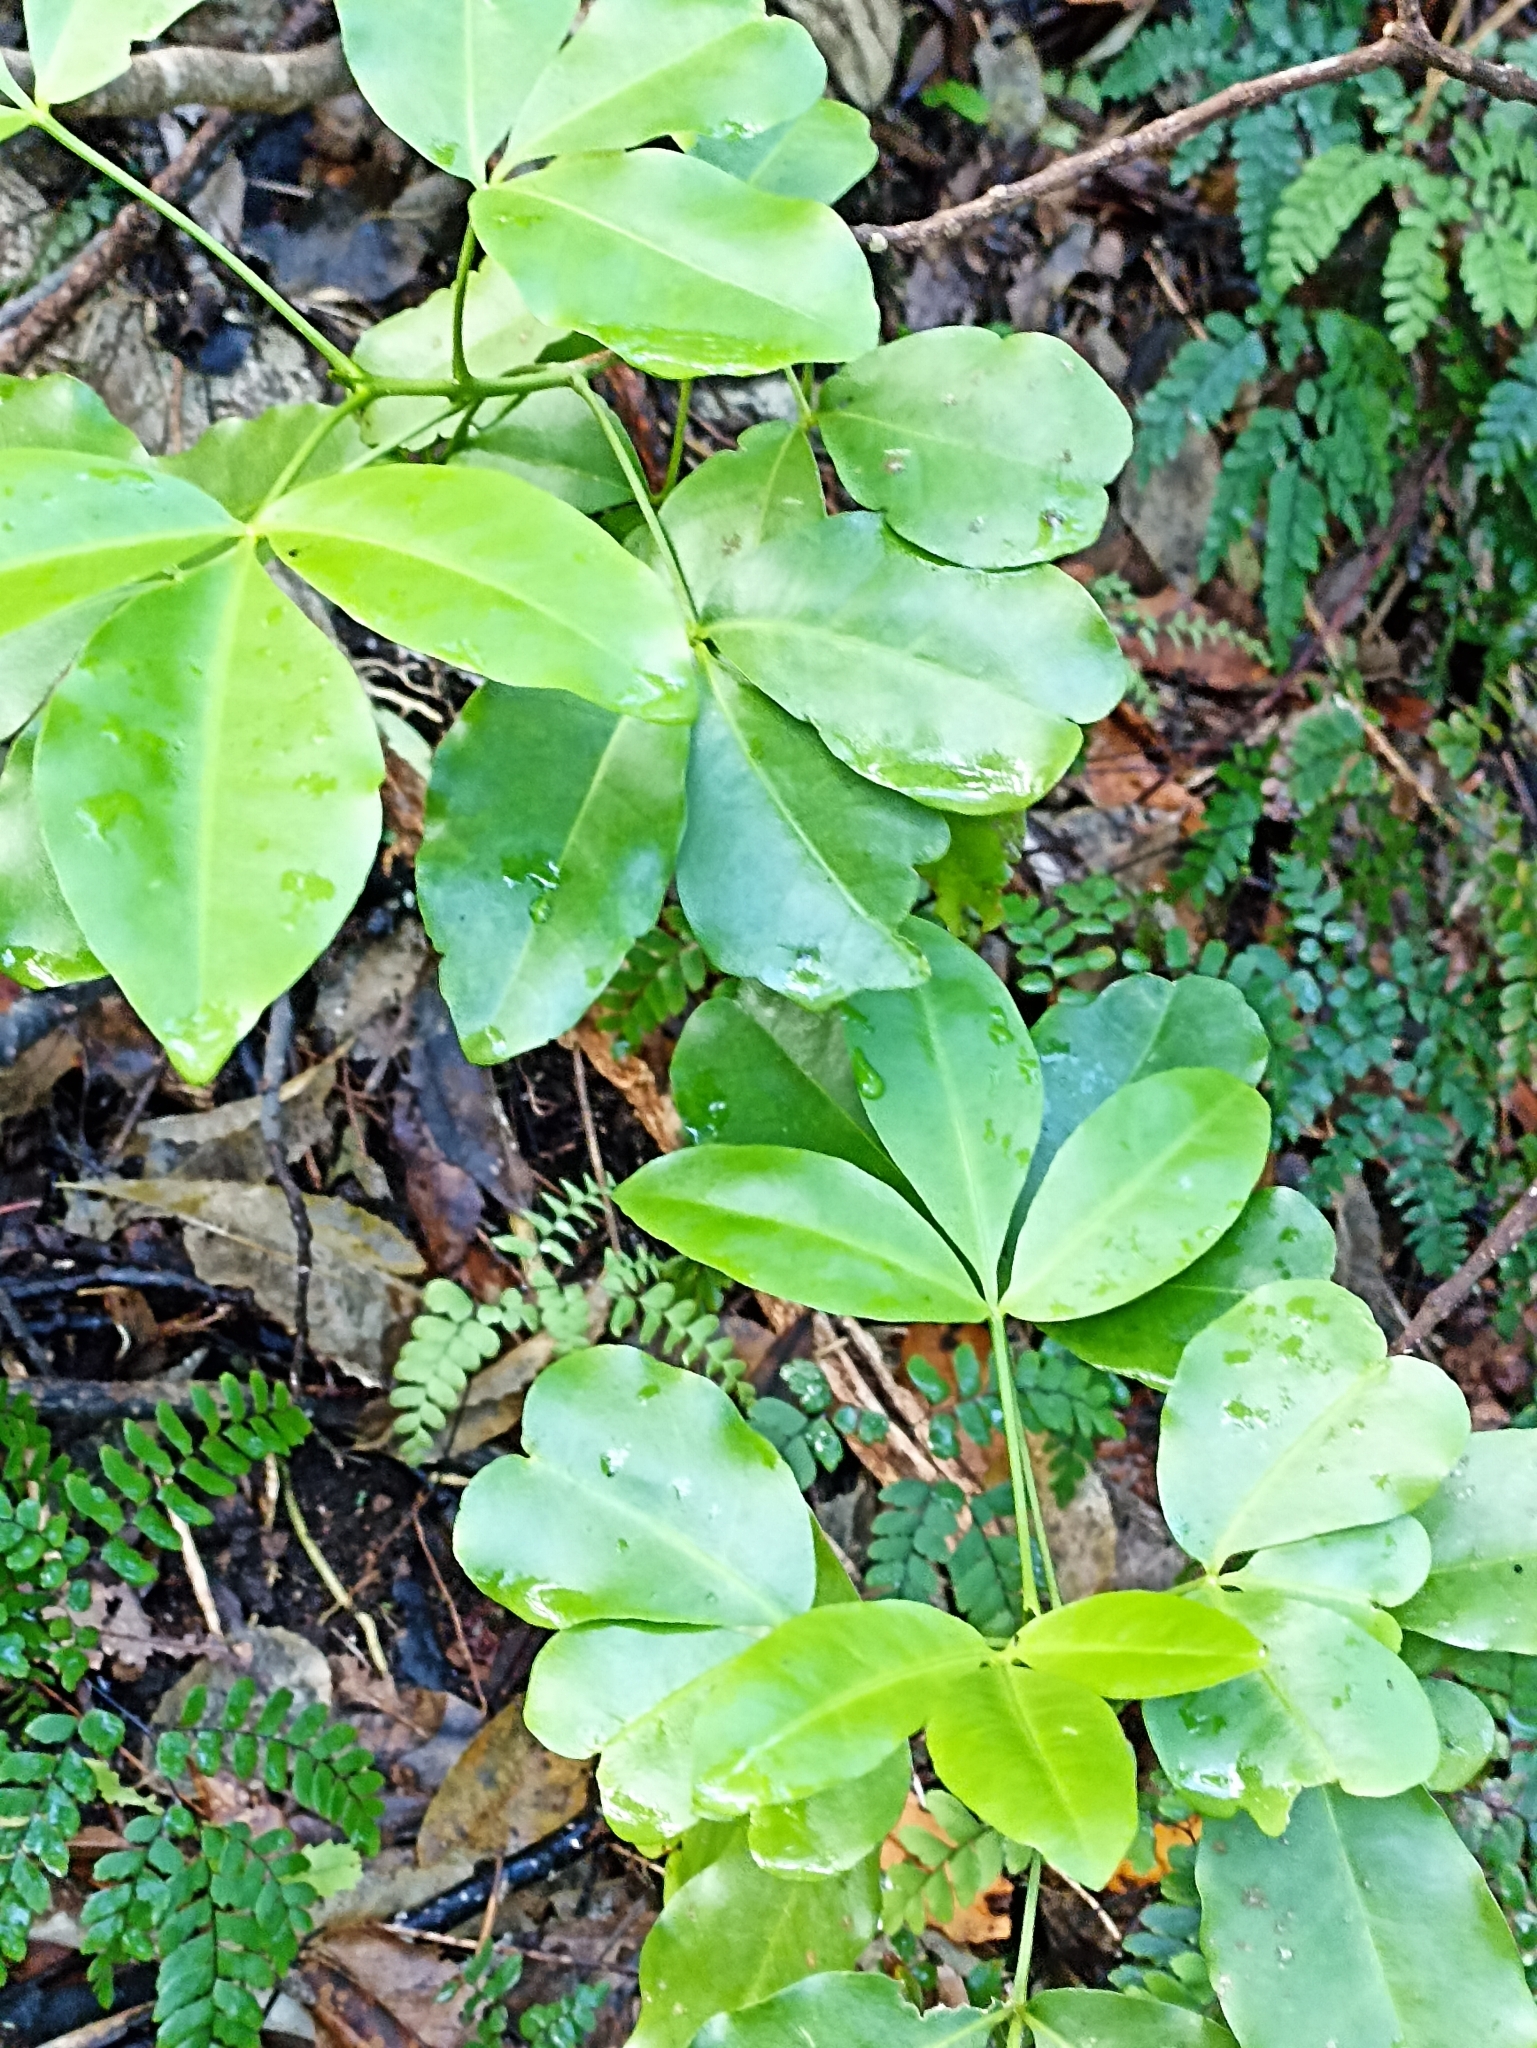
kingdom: Plantae
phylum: Tracheophyta
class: Magnoliopsida
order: Sapindales
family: Rutaceae
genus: Melicope
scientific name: Melicope ternata
